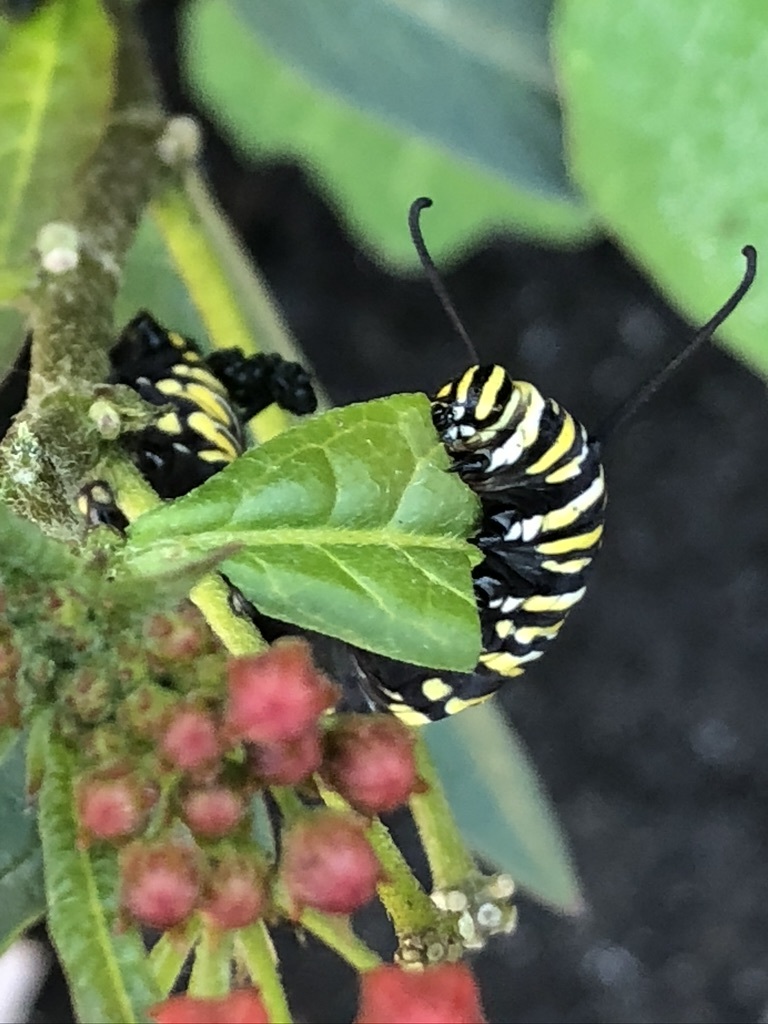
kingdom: Animalia
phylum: Arthropoda
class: Insecta
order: Lepidoptera
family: Nymphalidae
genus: Danaus
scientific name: Danaus plexippus
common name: Monarch
